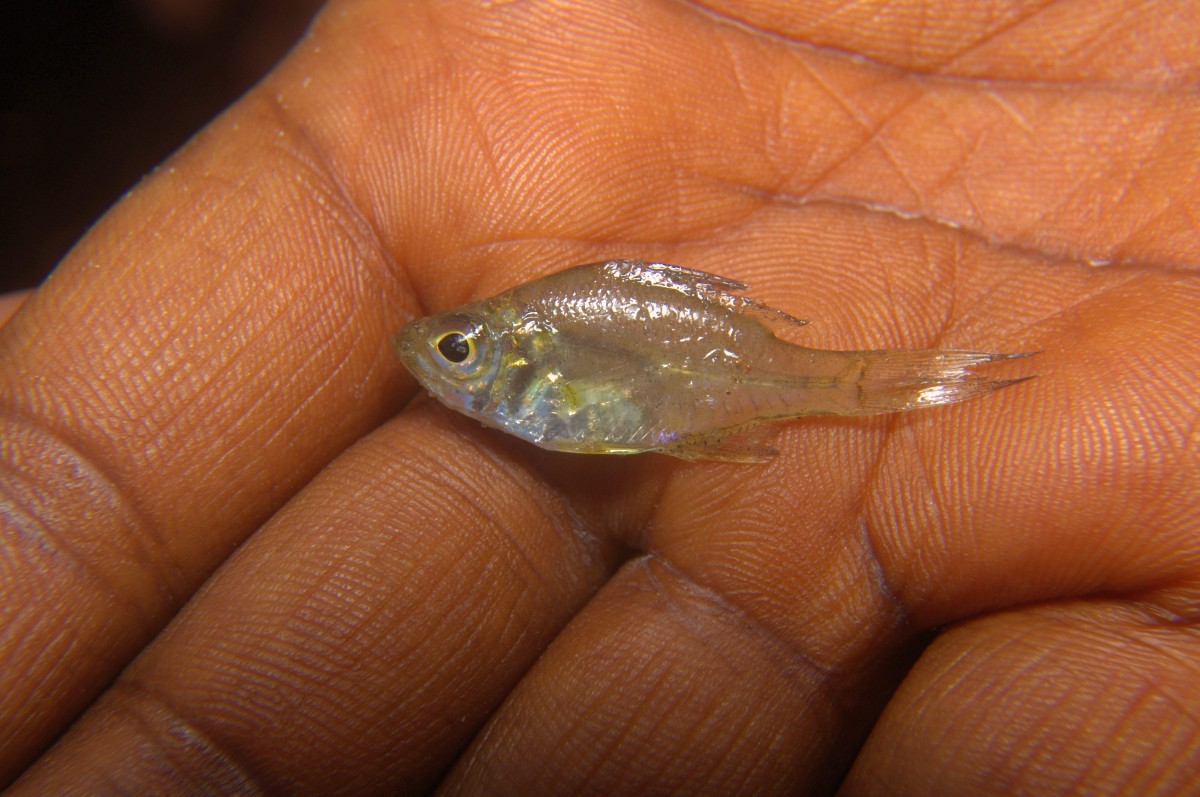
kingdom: Animalia
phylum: Chordata
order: Perciformes
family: Ambassidae
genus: Parambassis
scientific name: Parambassis dayi
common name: Day's glassy perchlet
